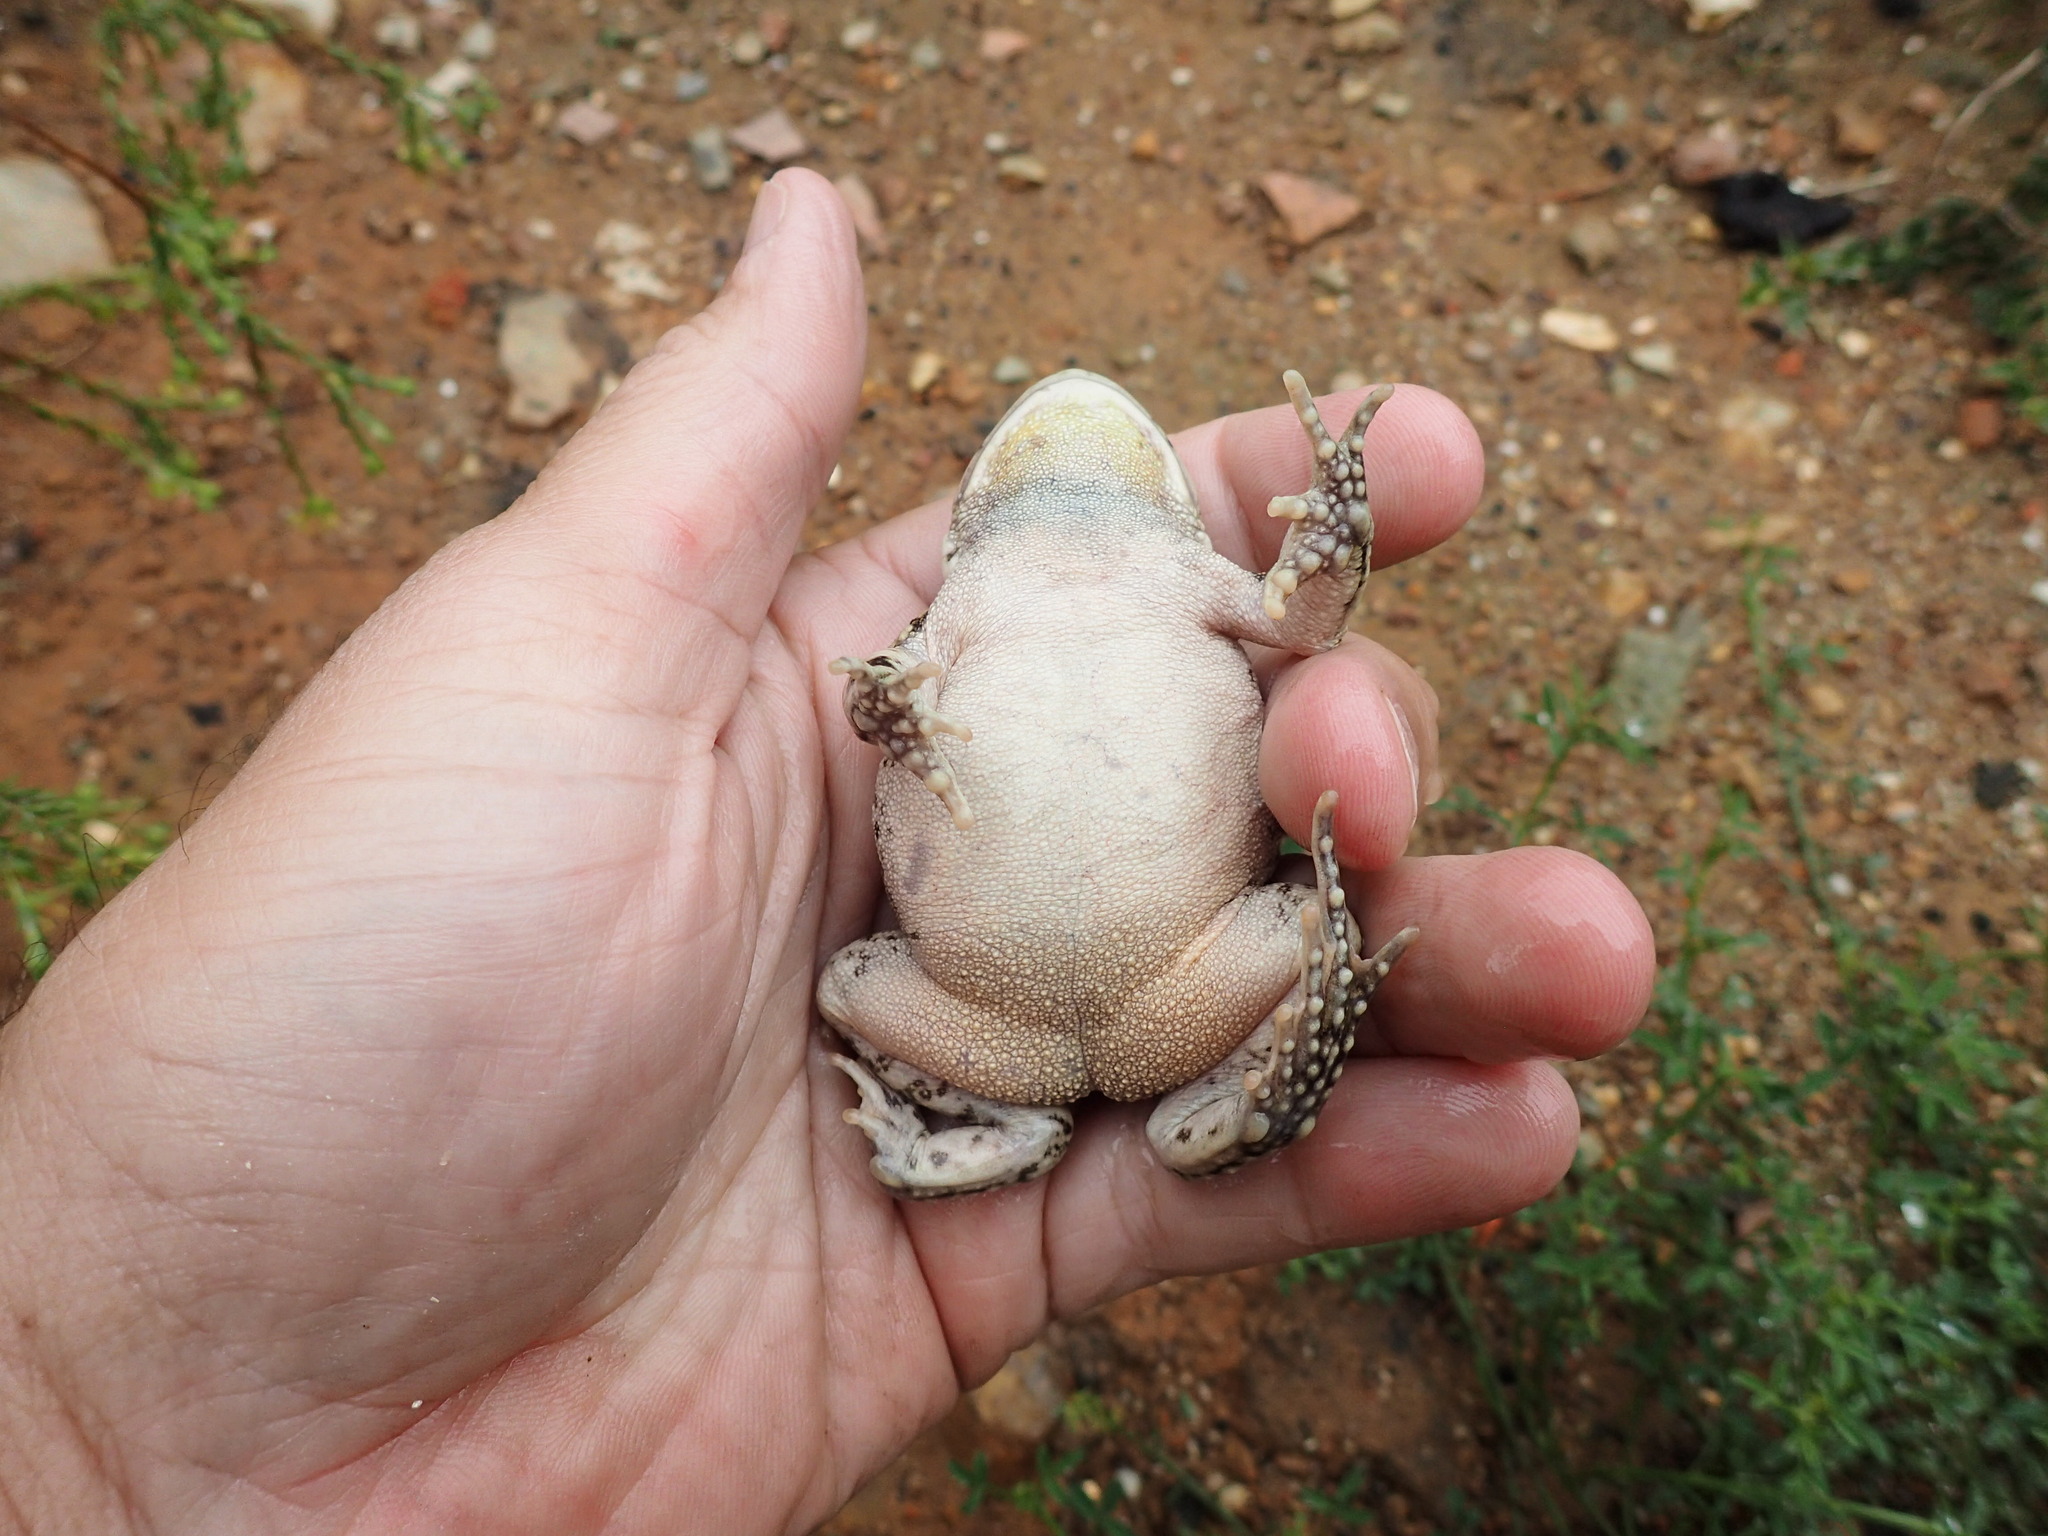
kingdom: Animalia
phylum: Chordata
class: Amphibia
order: Anura
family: Bufonidae
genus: Sclerophrys
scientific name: Sclerophrys capensis
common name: Ranger’s toad
